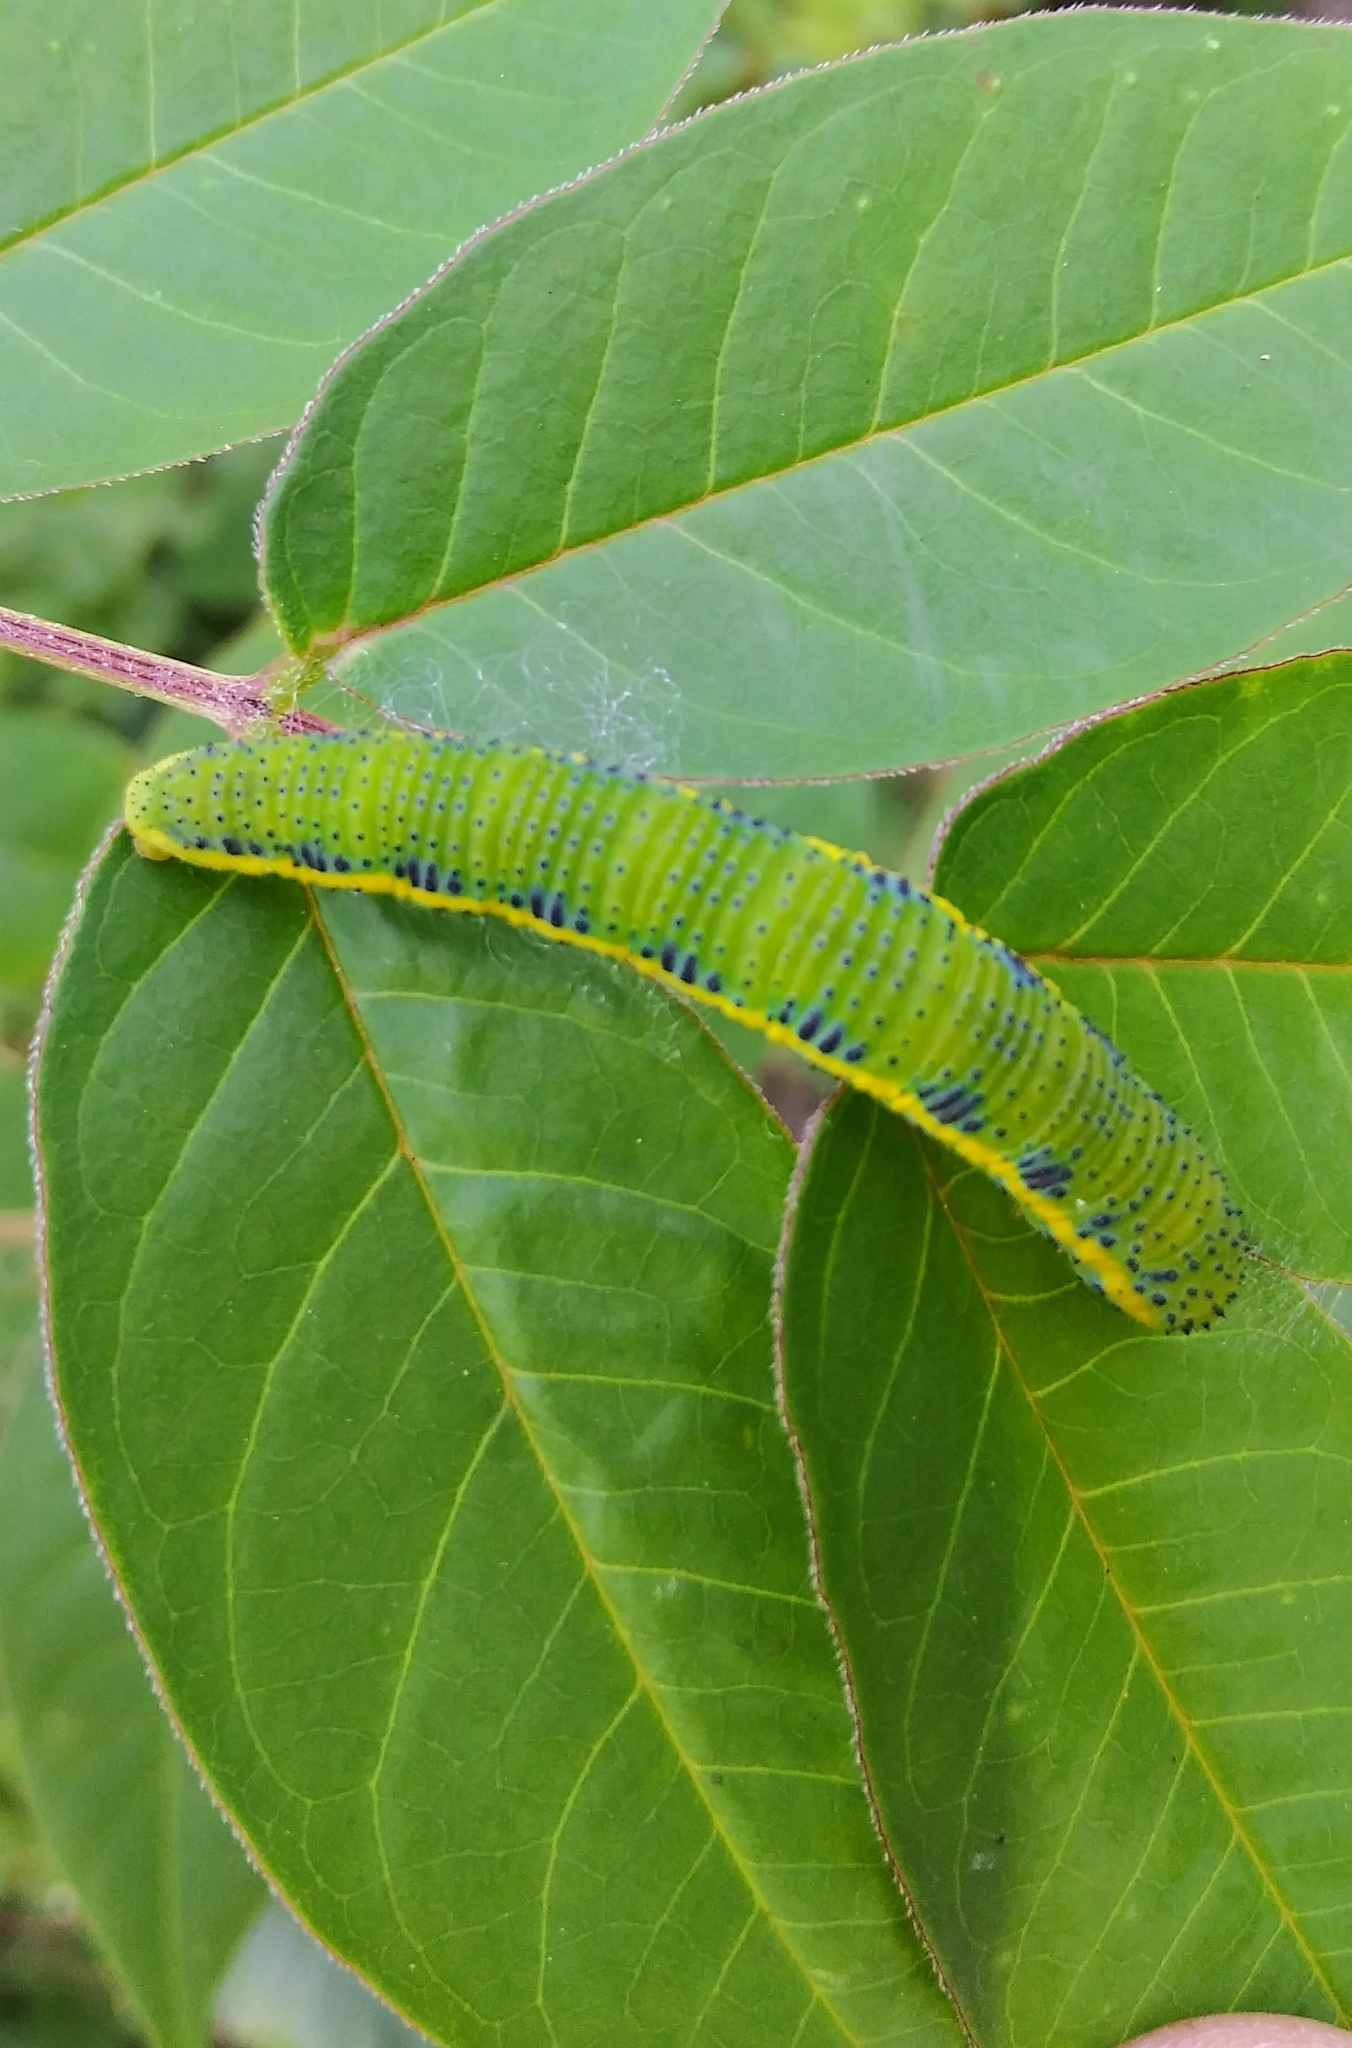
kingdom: Animalia
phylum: Arthropoda
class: Insecta
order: Lepidoptera
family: Pieridae
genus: Phoebis
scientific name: Phoebis sennae
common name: Cloudless sulphur
